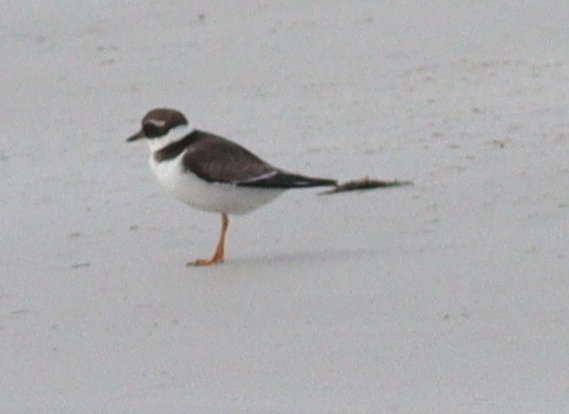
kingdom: Animalia
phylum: Chordata
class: Aves
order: Charadriiformes
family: Charadriidae
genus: Charadrius
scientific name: Charadrius hiaticula
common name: Common ringed plover
